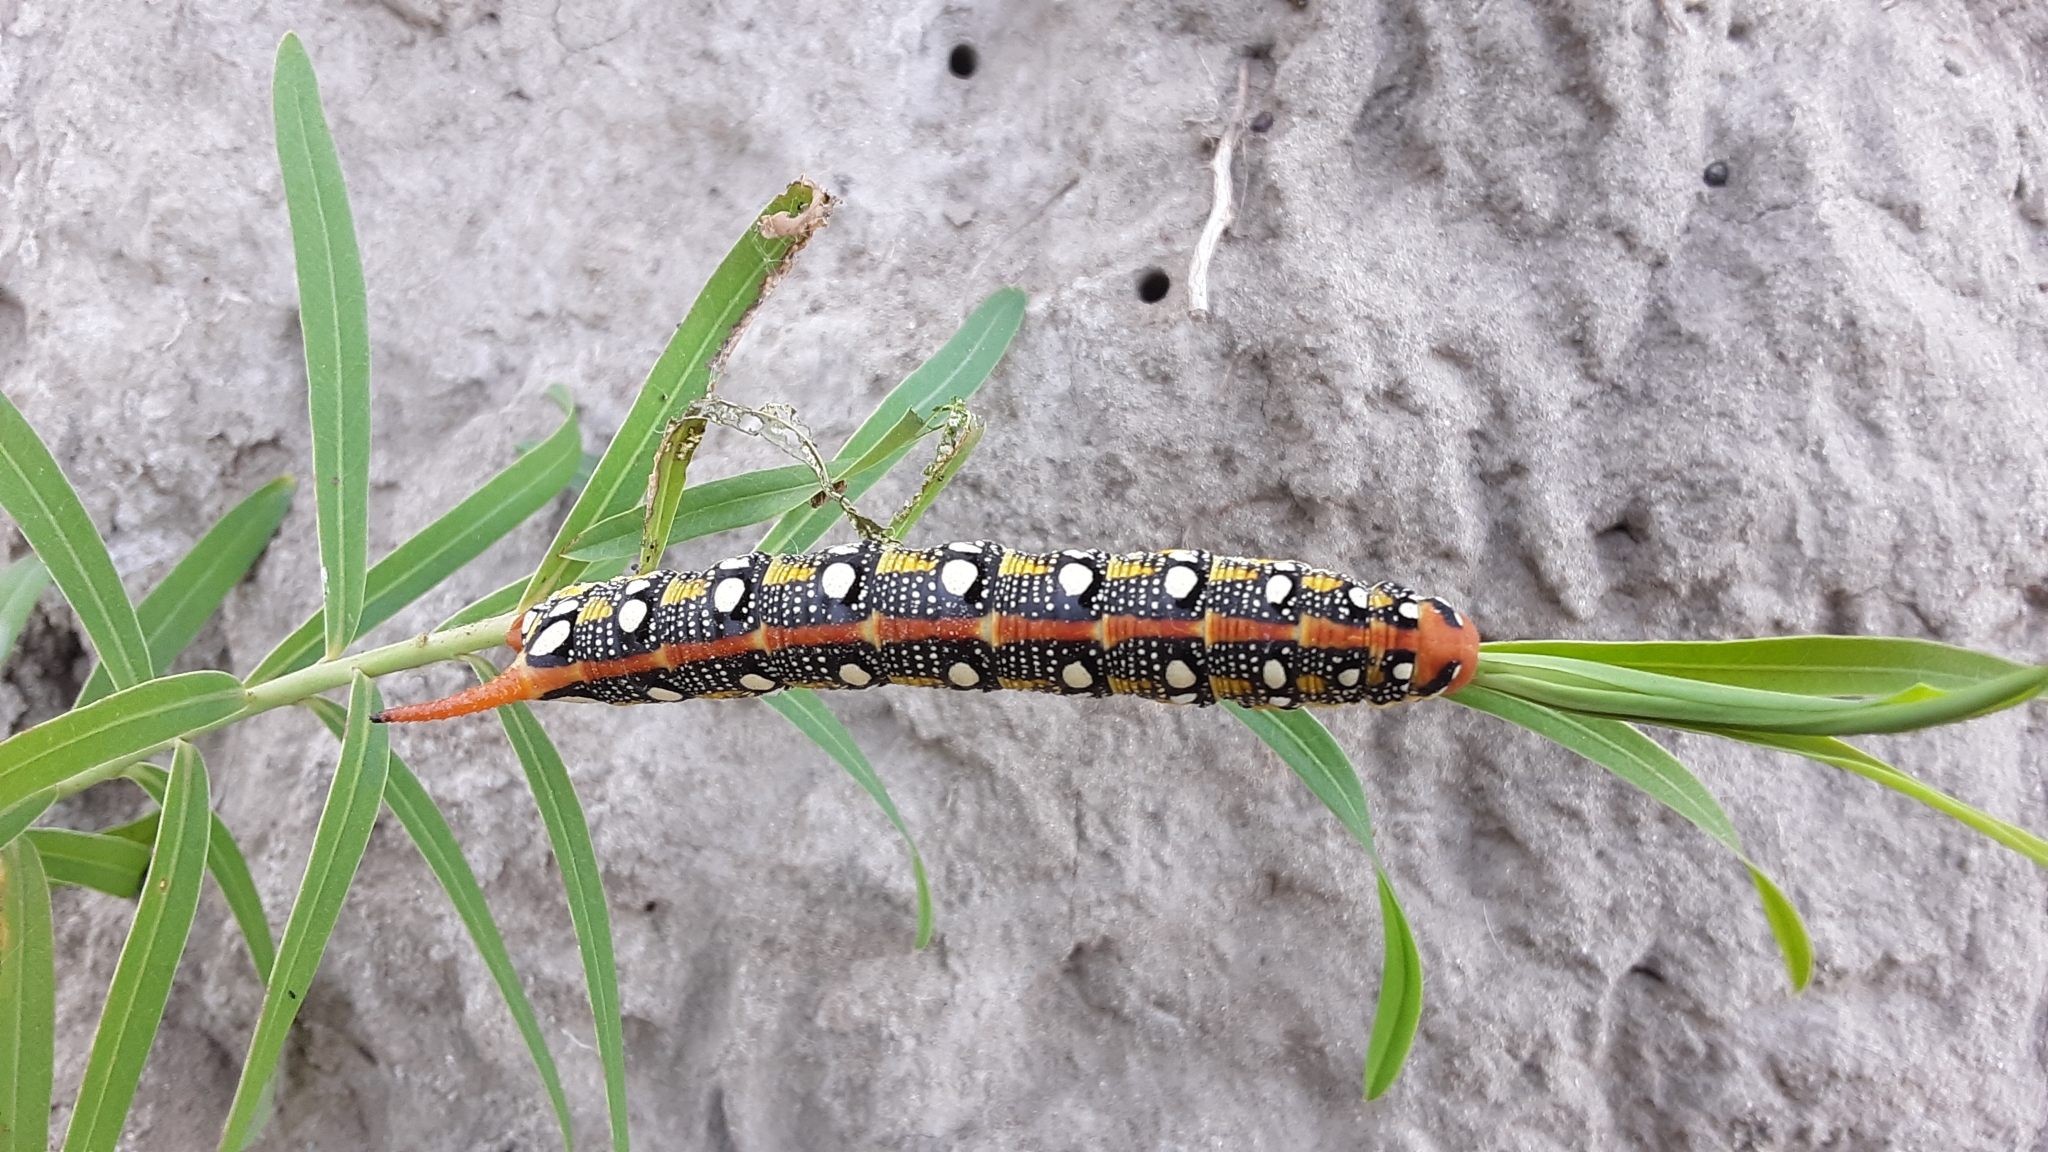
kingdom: Animalia
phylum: Arthropoda
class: Insecta
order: Lepidoptera
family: Sphingidae
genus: Hyles
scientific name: Hyles euphorbiae
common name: Spurge hawk-moth
